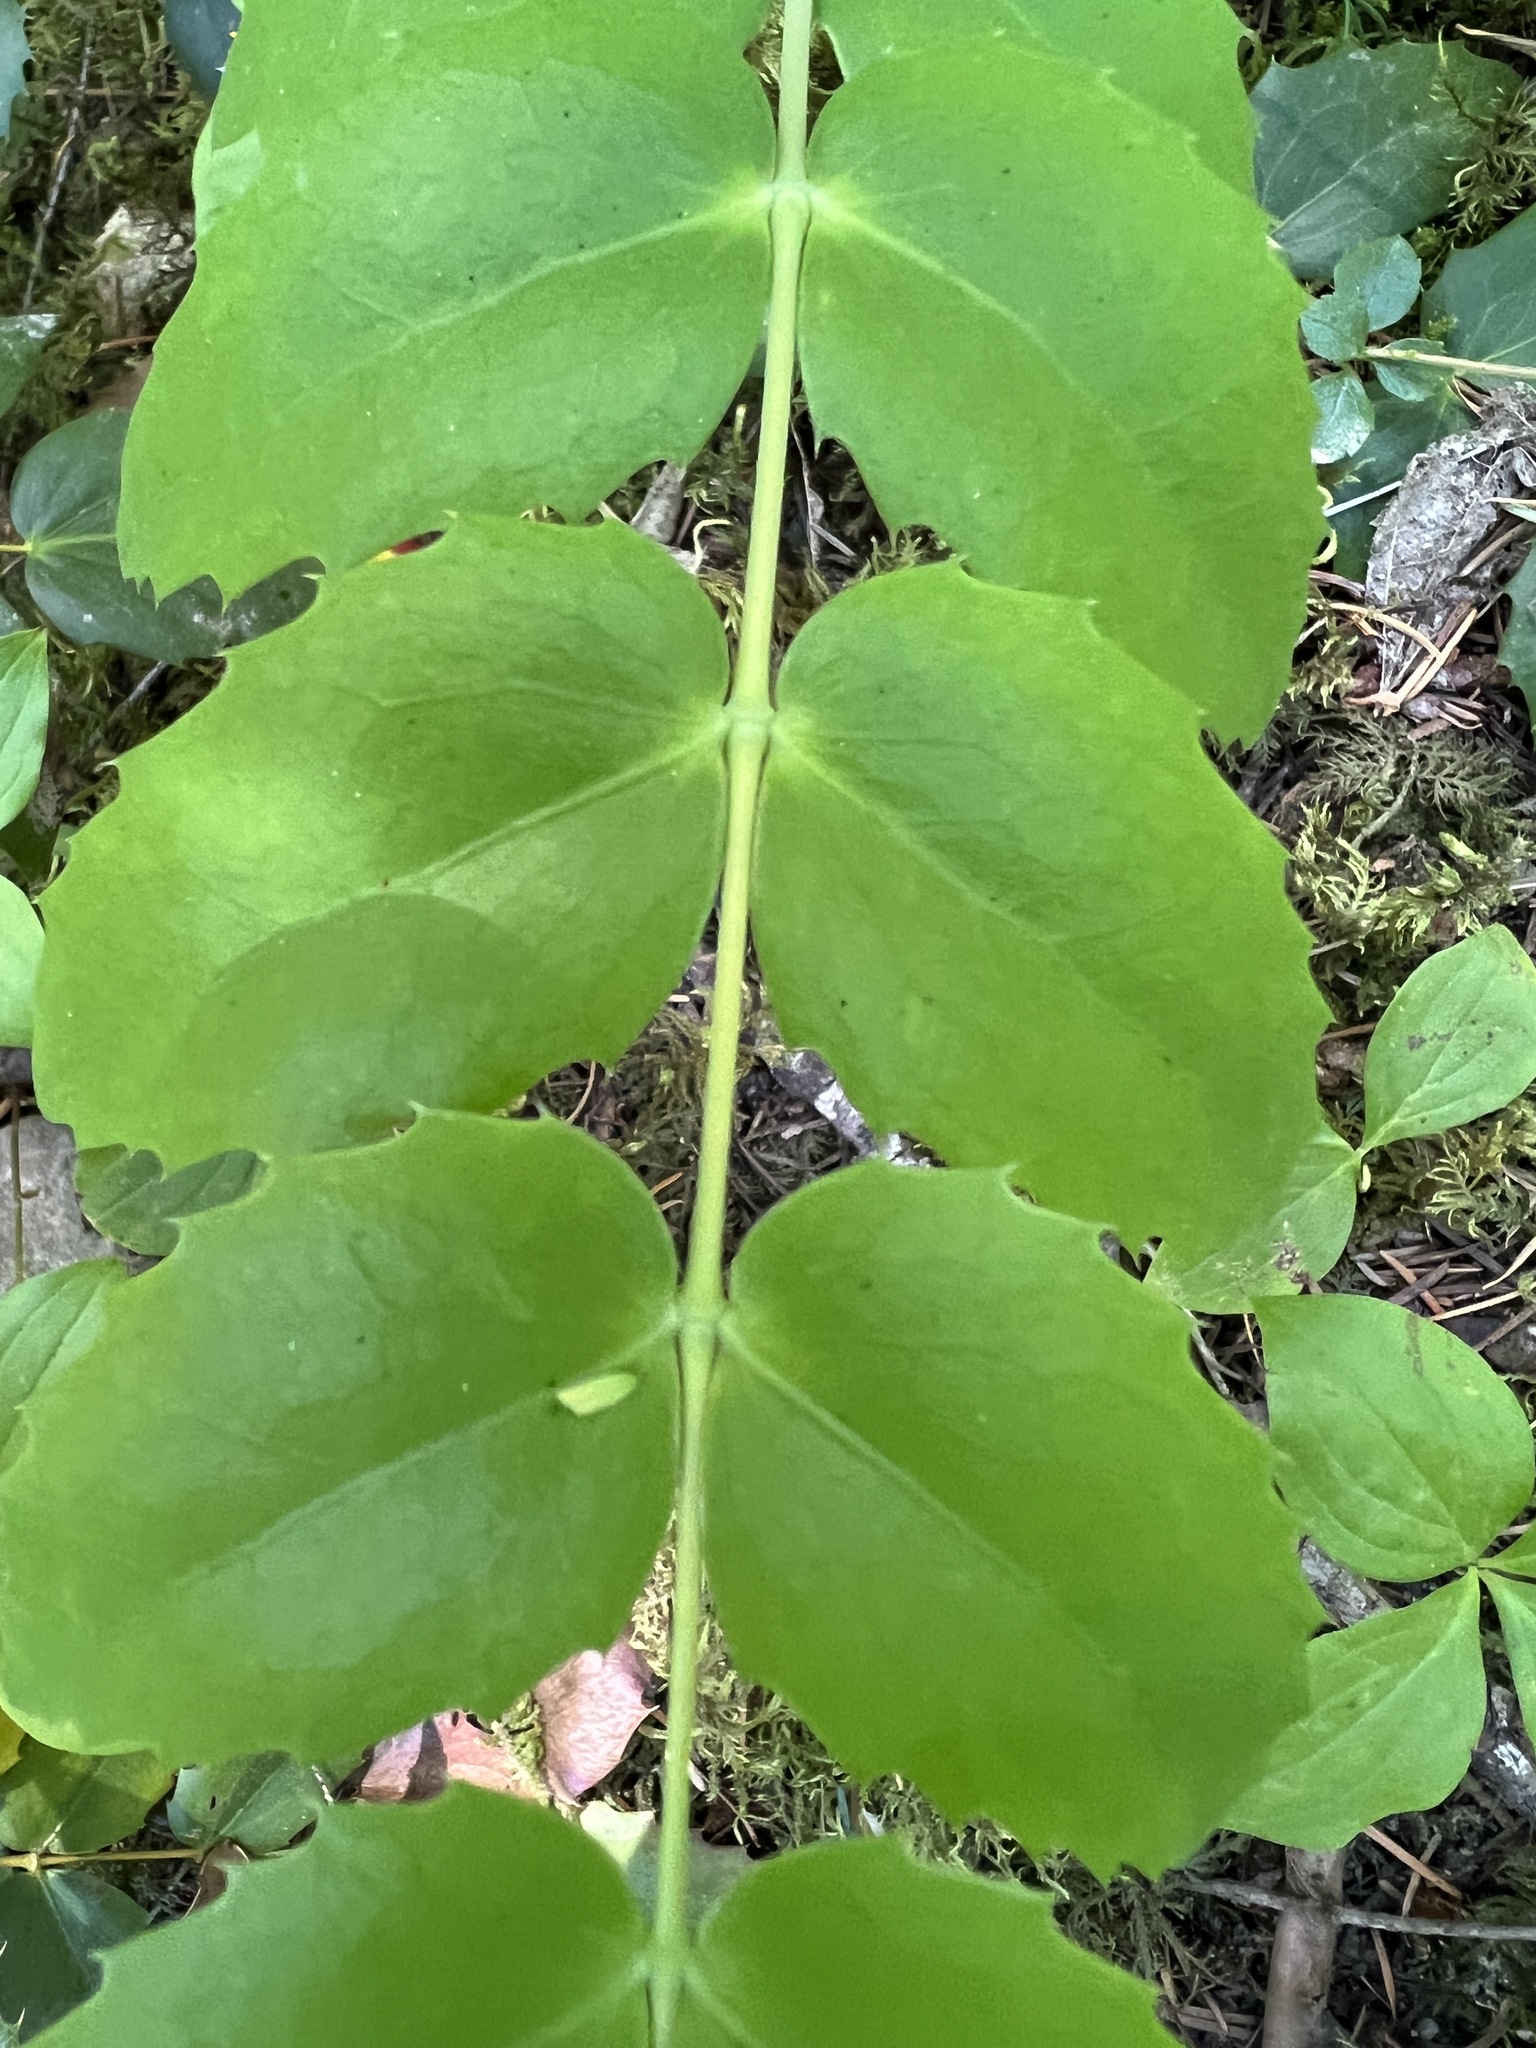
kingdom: Plantae
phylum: Tracheophyta
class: Magnoliopsida
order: Ranunculales
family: Berberidaceae
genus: Mahonia
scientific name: Mahonia nervosa
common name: Cascade oregon-grape
